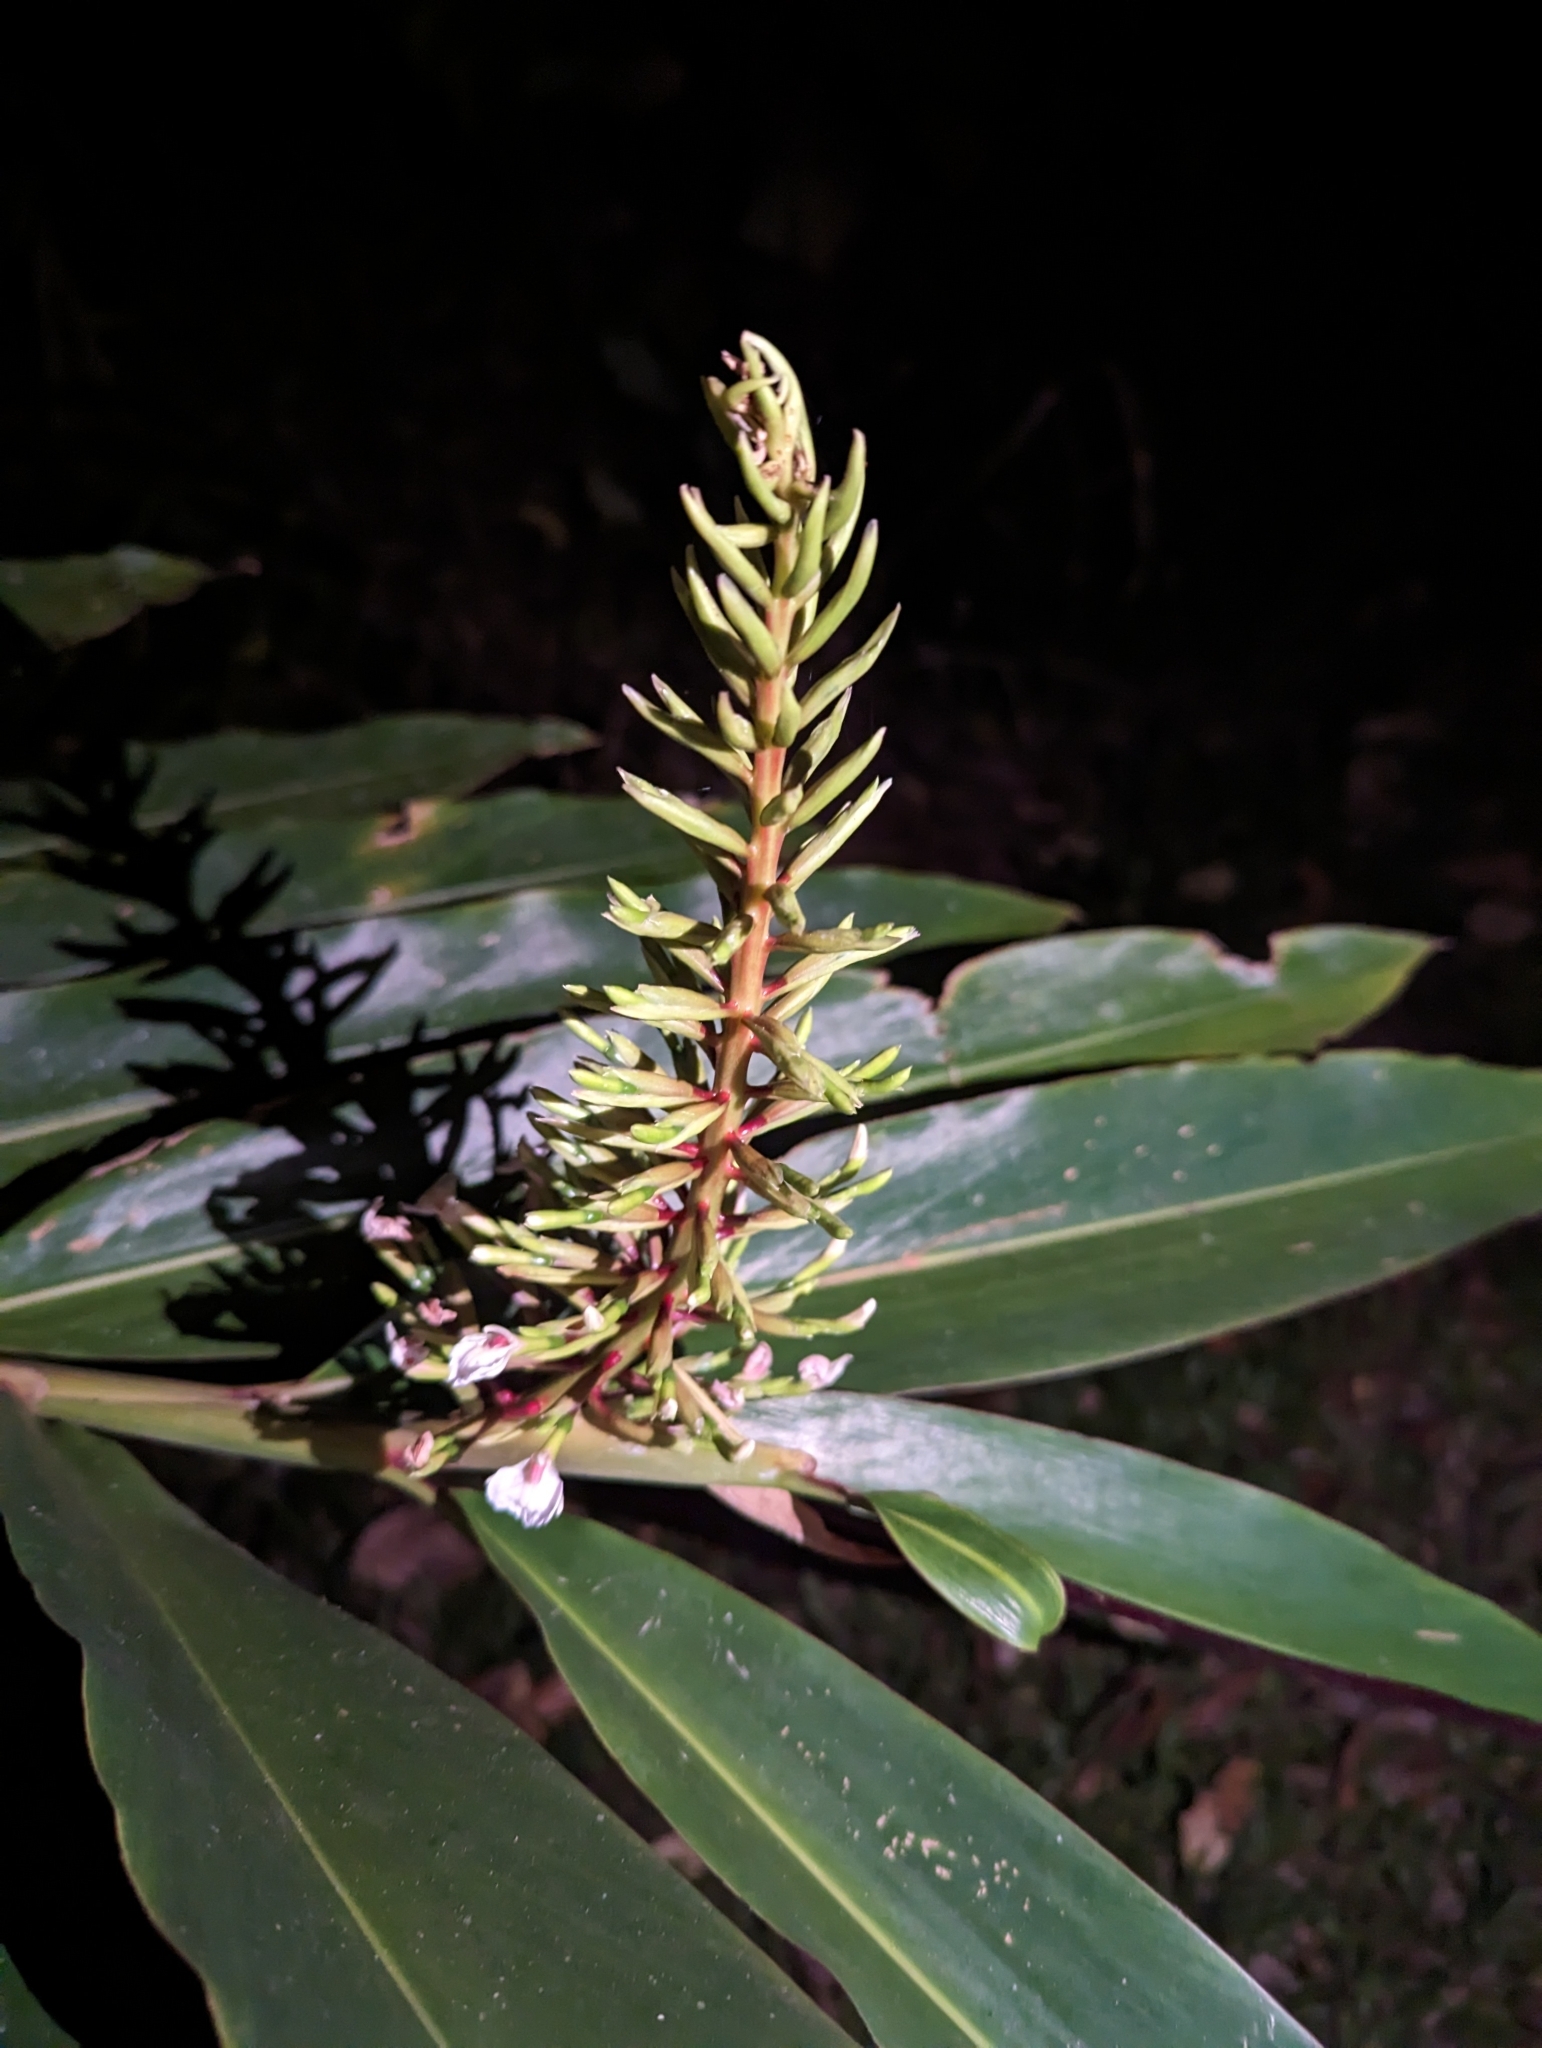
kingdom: Plantae
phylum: Tracheophyta
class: Liliopsida
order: Zingiberales
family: Zingiberaceae
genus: Alpinia
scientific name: Alpinia caerulea
